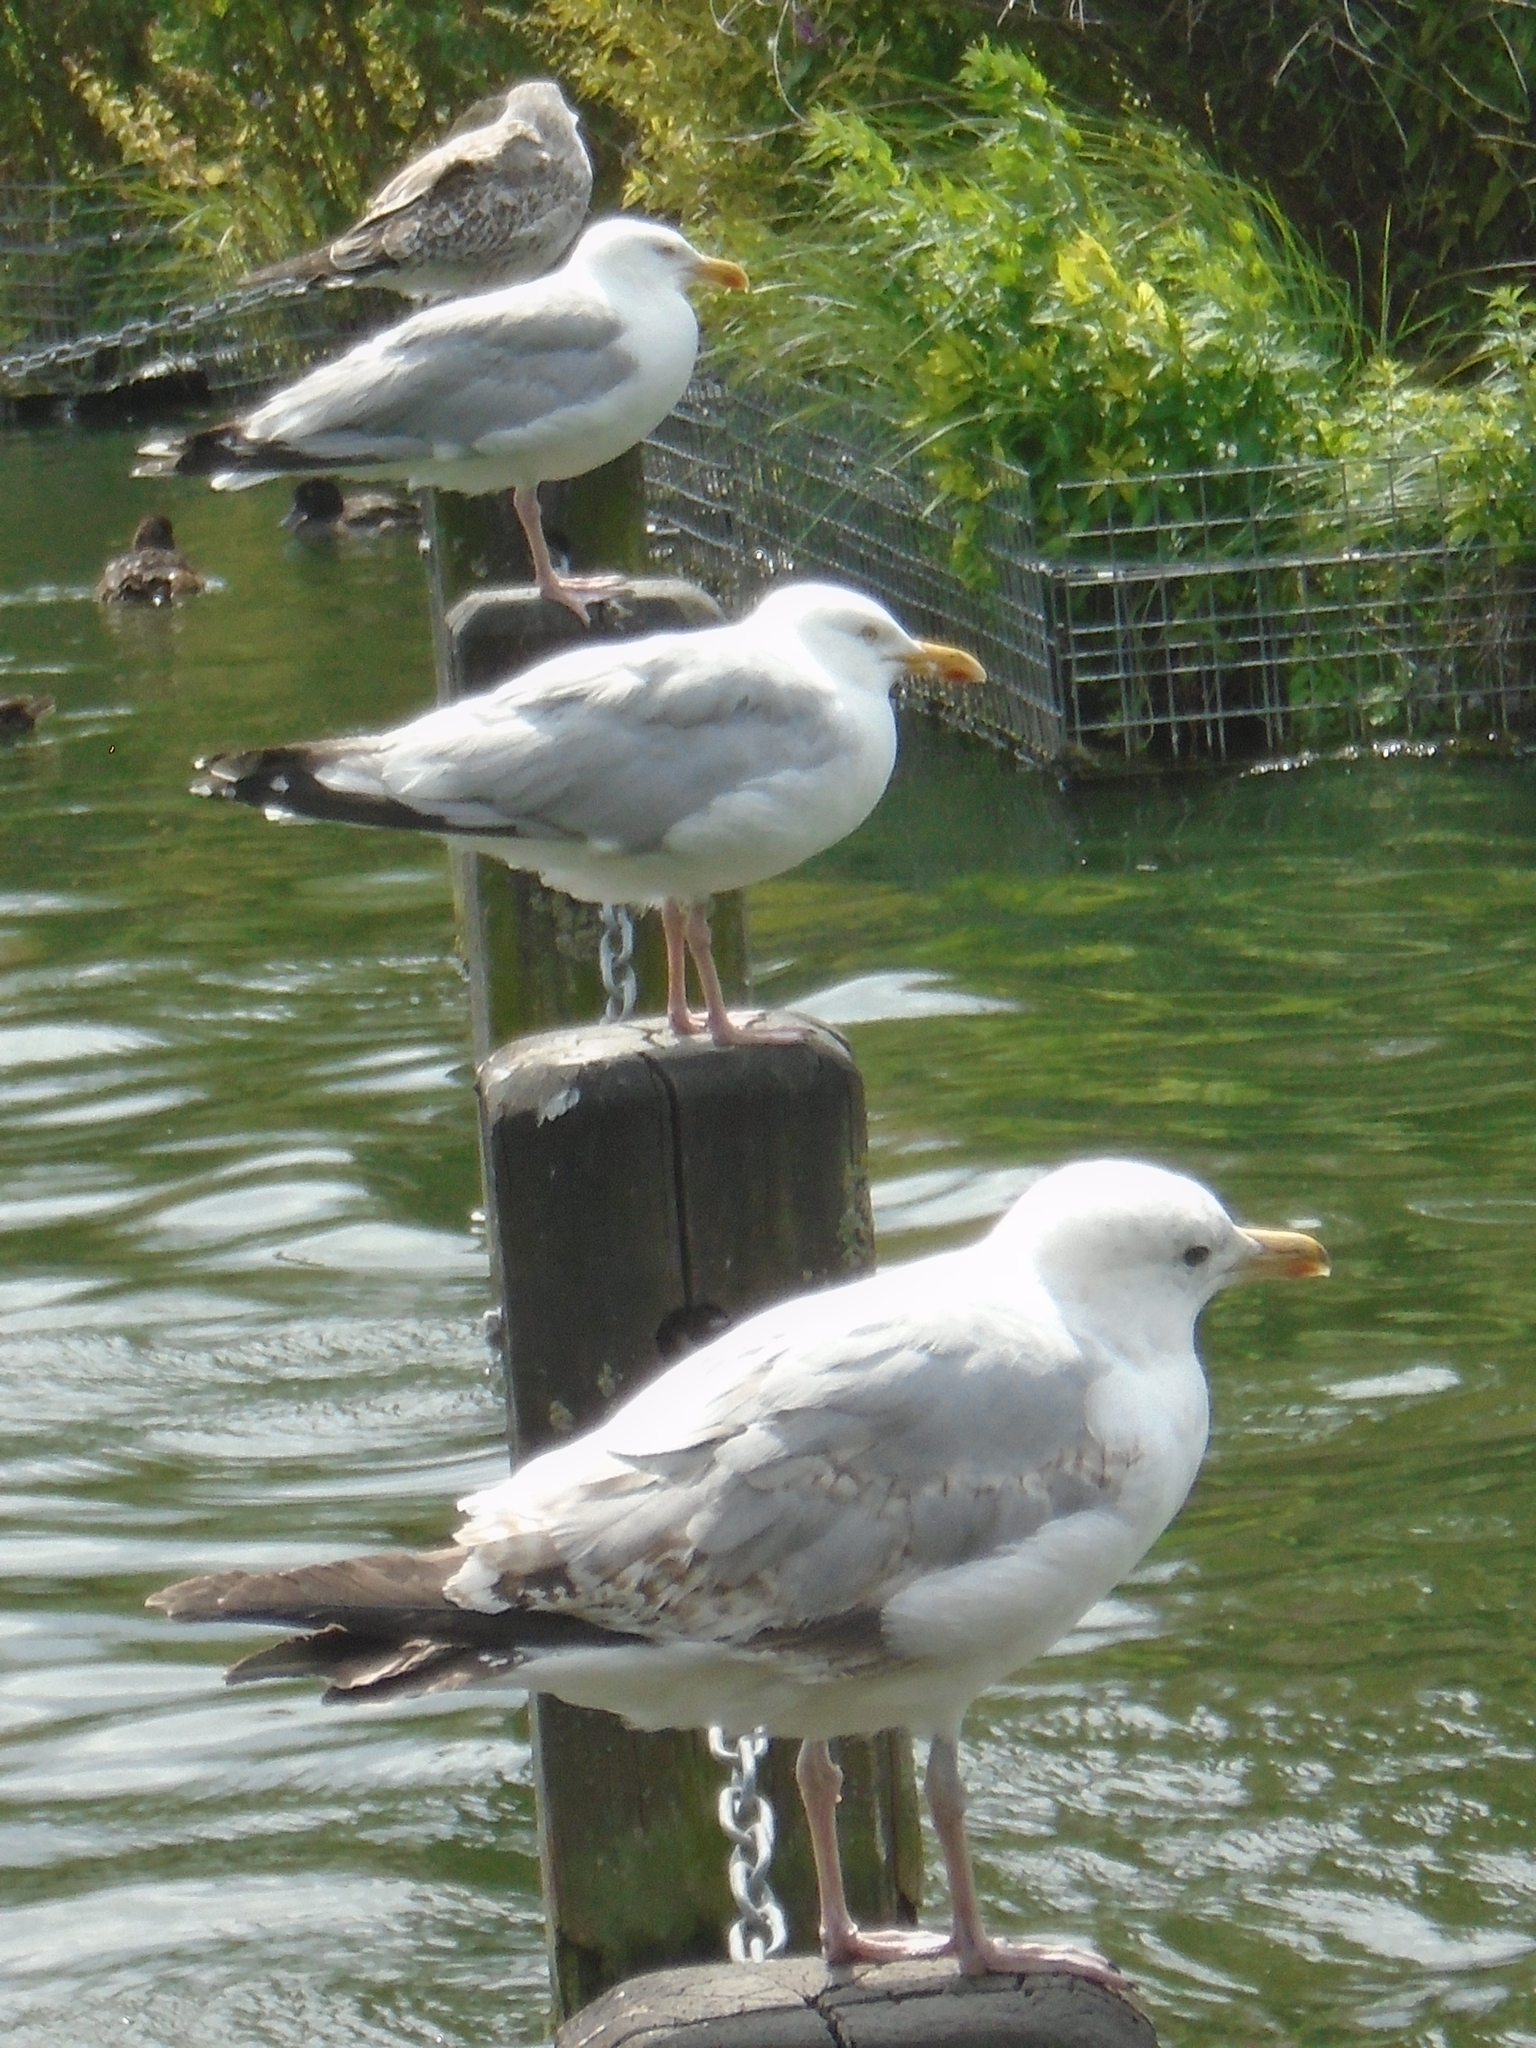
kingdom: Animalia
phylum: Chordata
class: Aves
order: Charadriiformes
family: Laridae
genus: Larus
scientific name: Larus argentatus
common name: Herring gull
